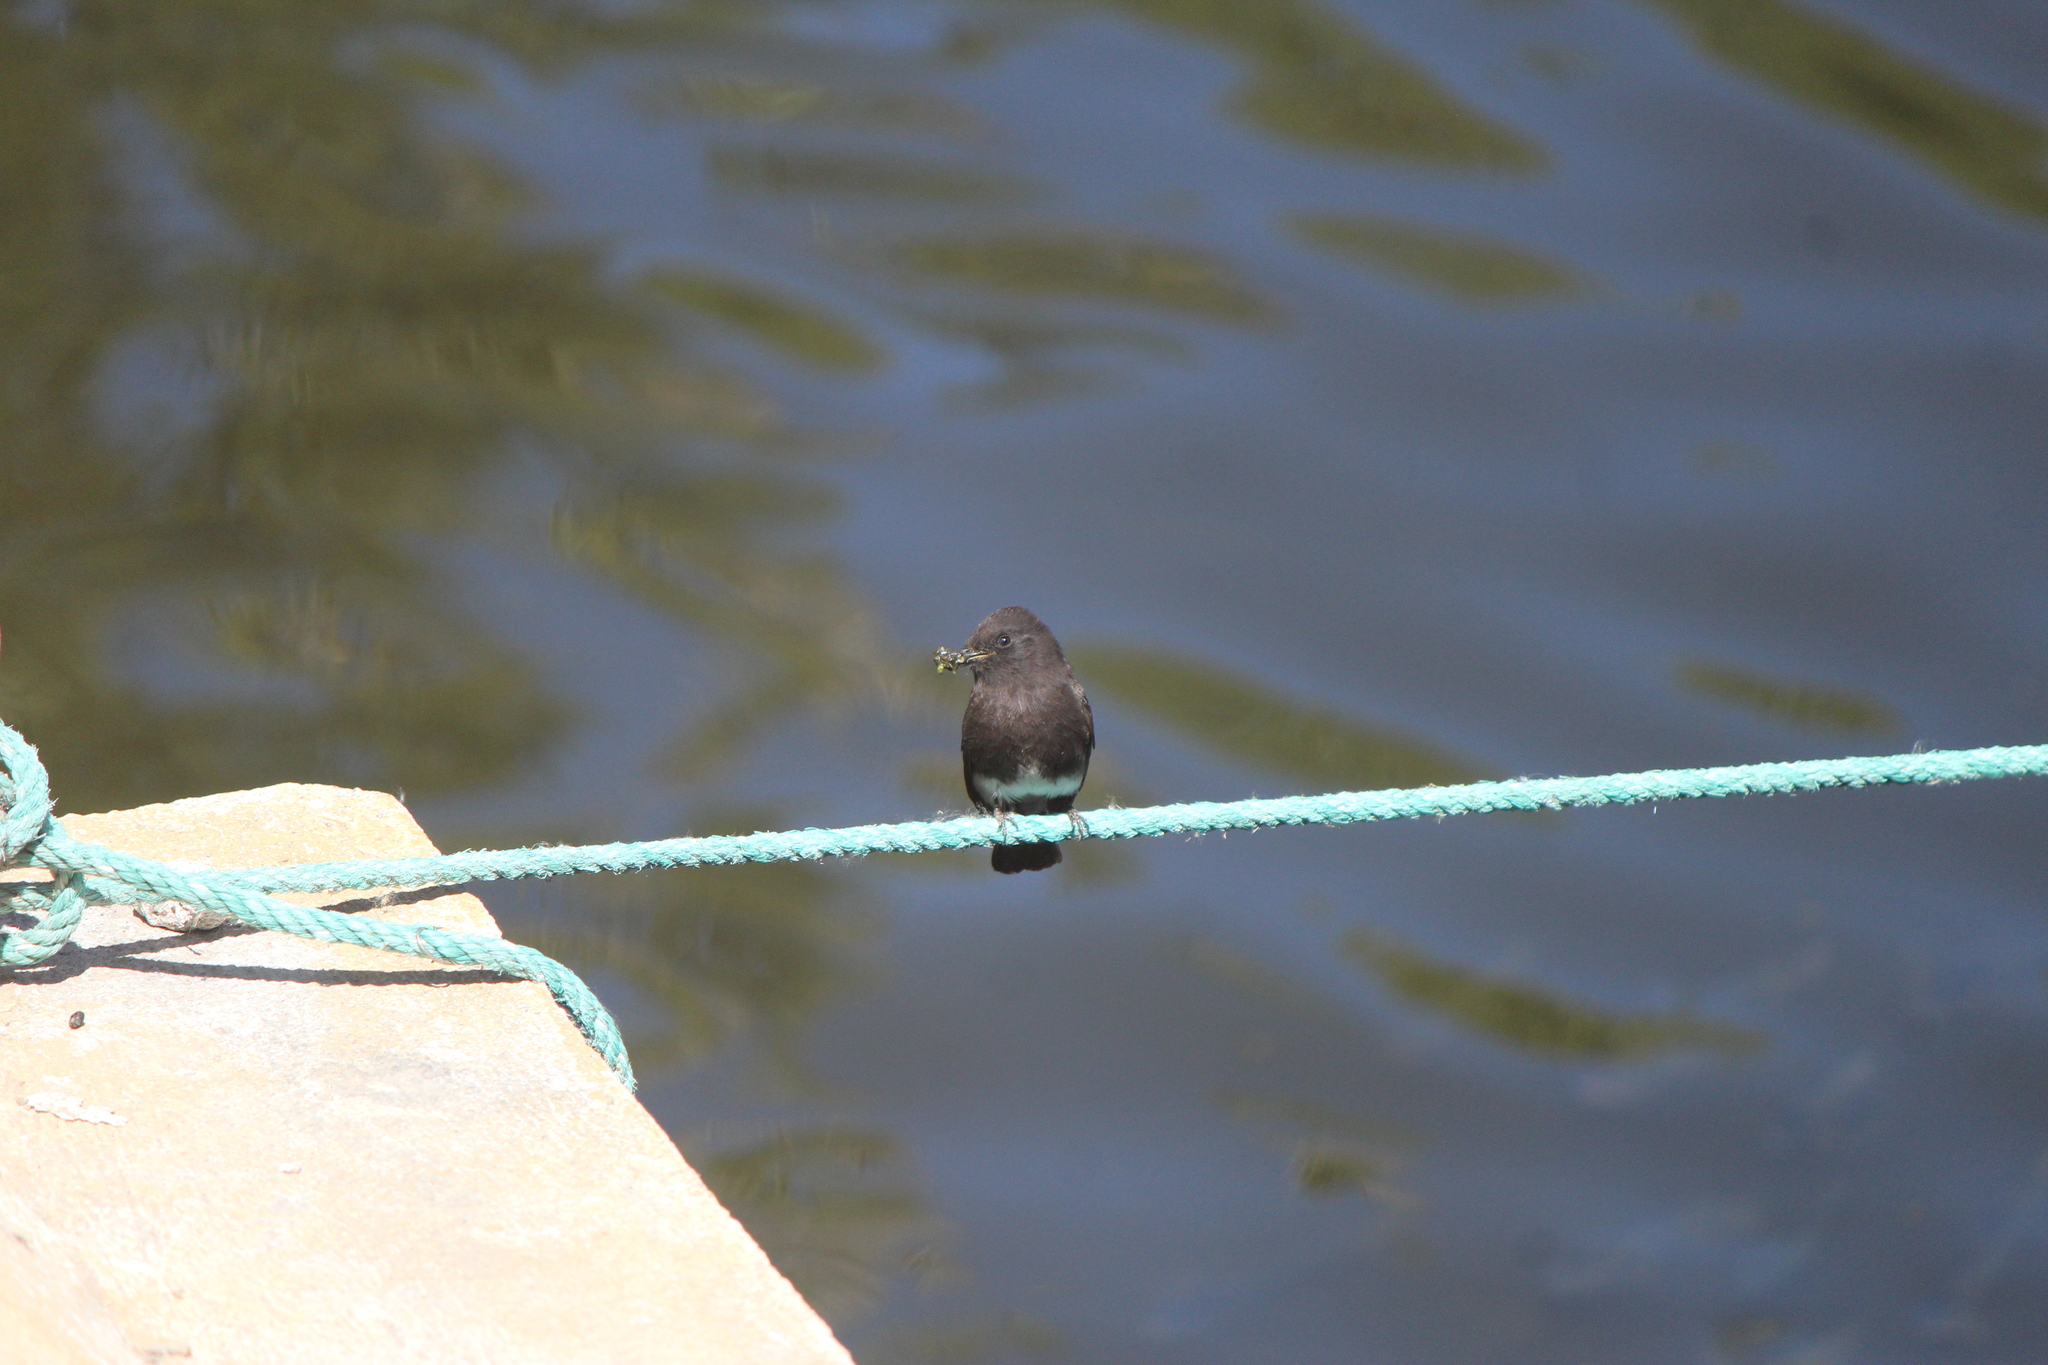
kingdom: Animalia
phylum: Chordata
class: Aves
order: Passeriformes
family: Tyrannidae
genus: Sayornis
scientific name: Sayornis nigricans
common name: Black phoebe
